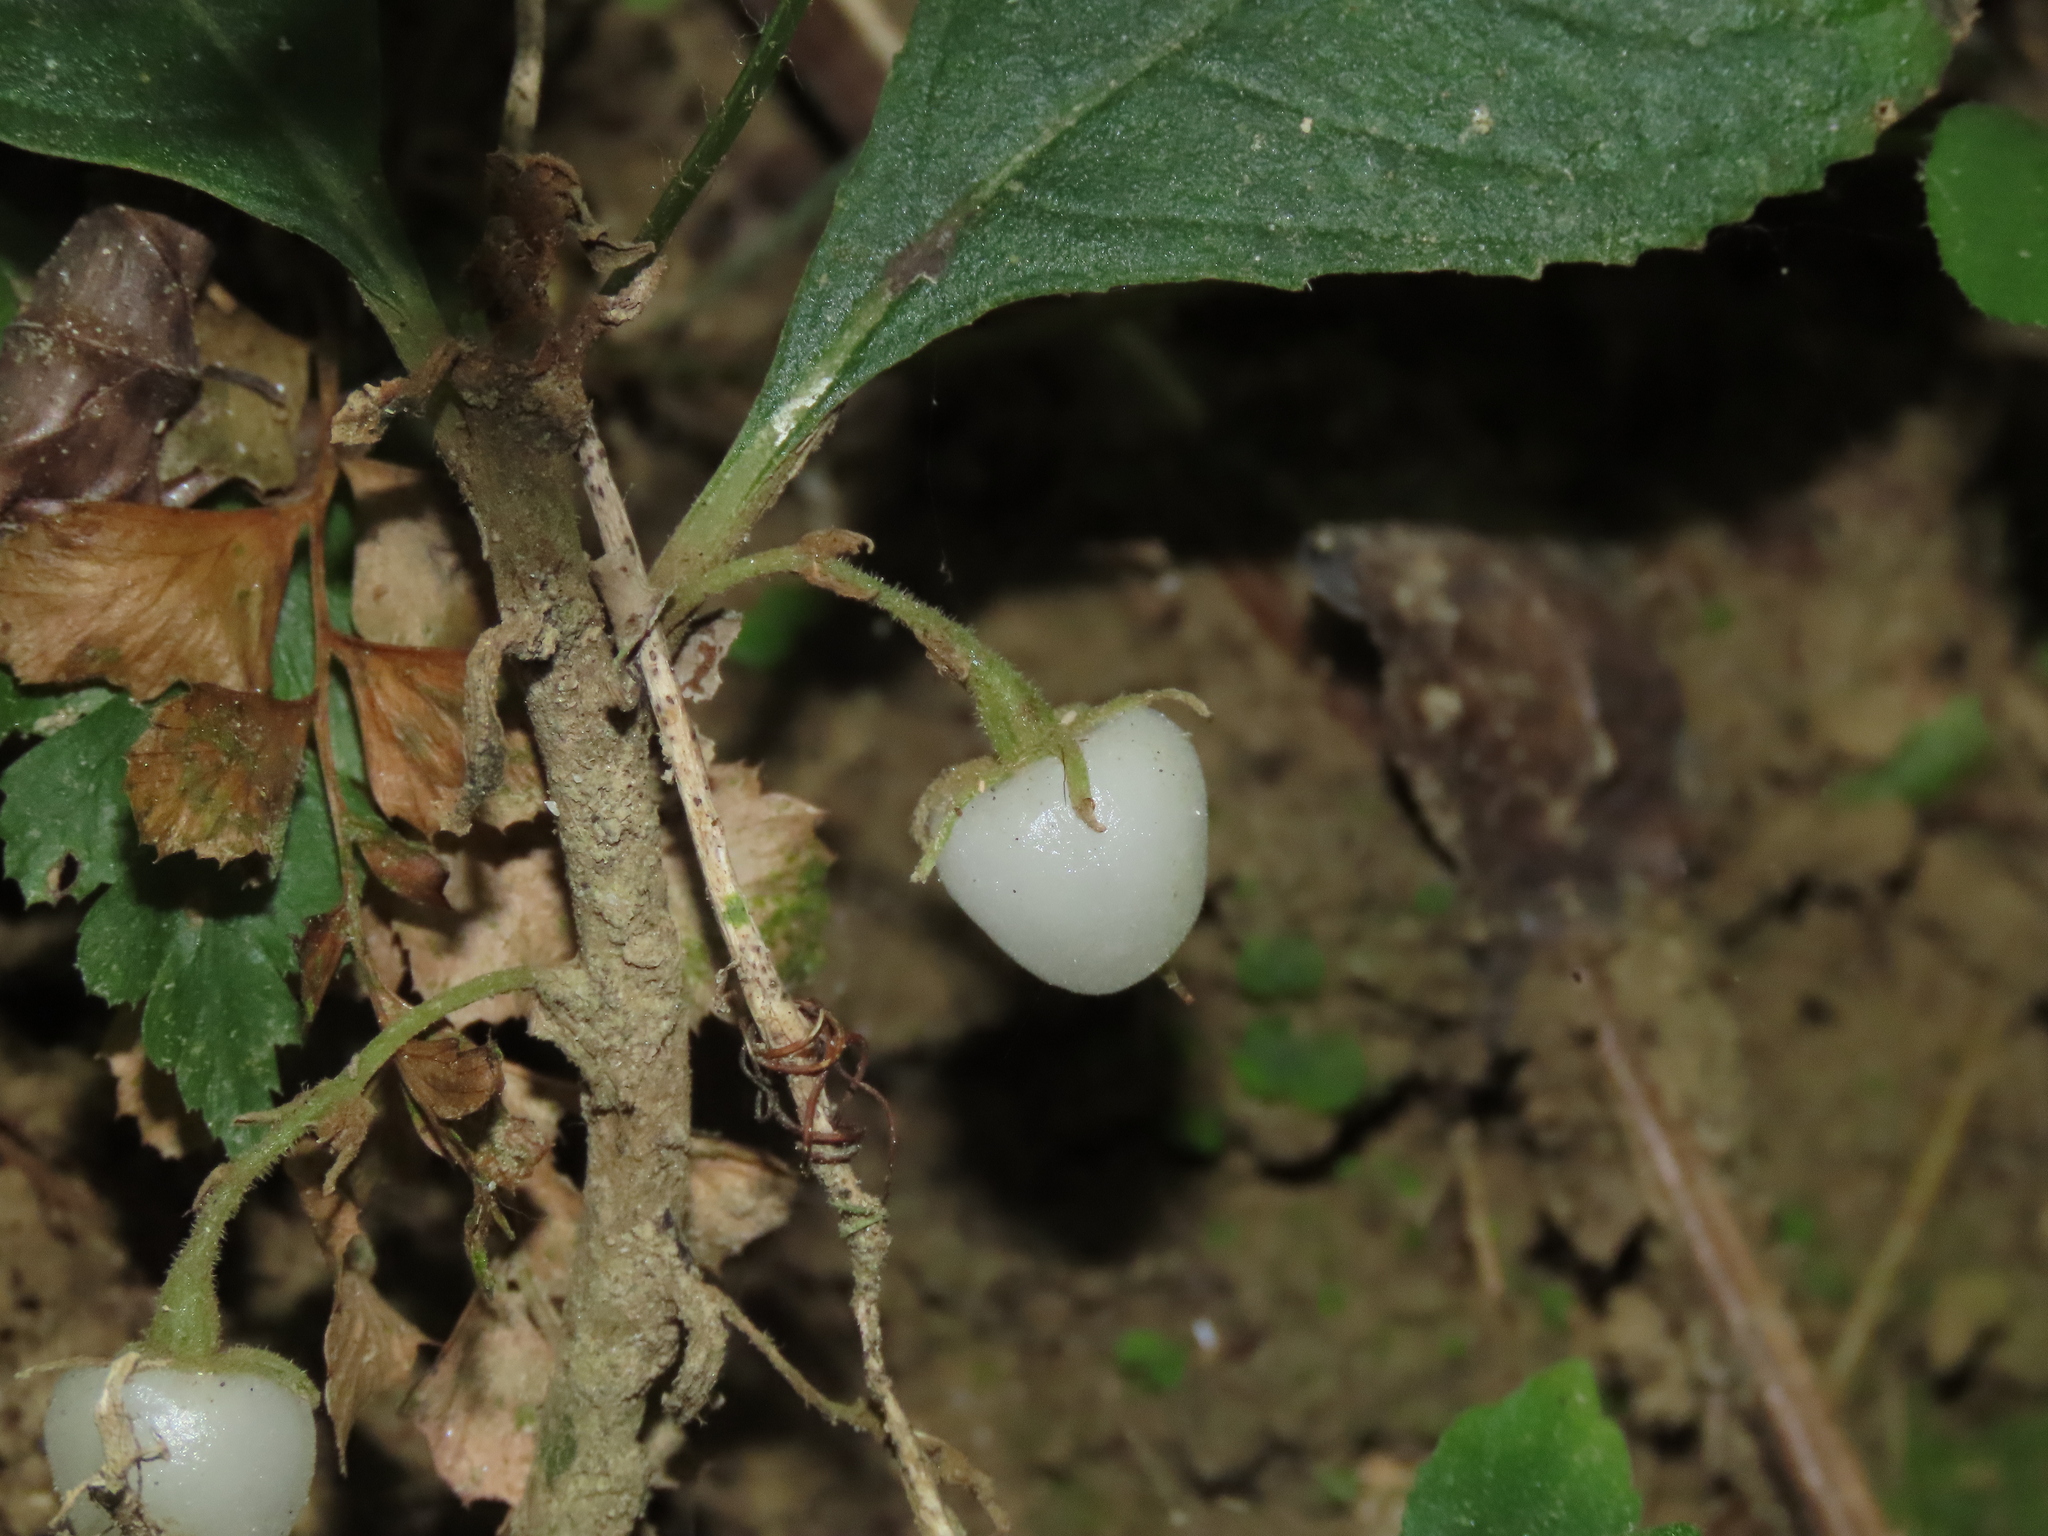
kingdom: Plantae
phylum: Tracheophyta
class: Magnoliopsida
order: Lamiales
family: Gesneriaceae
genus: Rhynchotechum
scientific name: Rhynchotechum discolor
